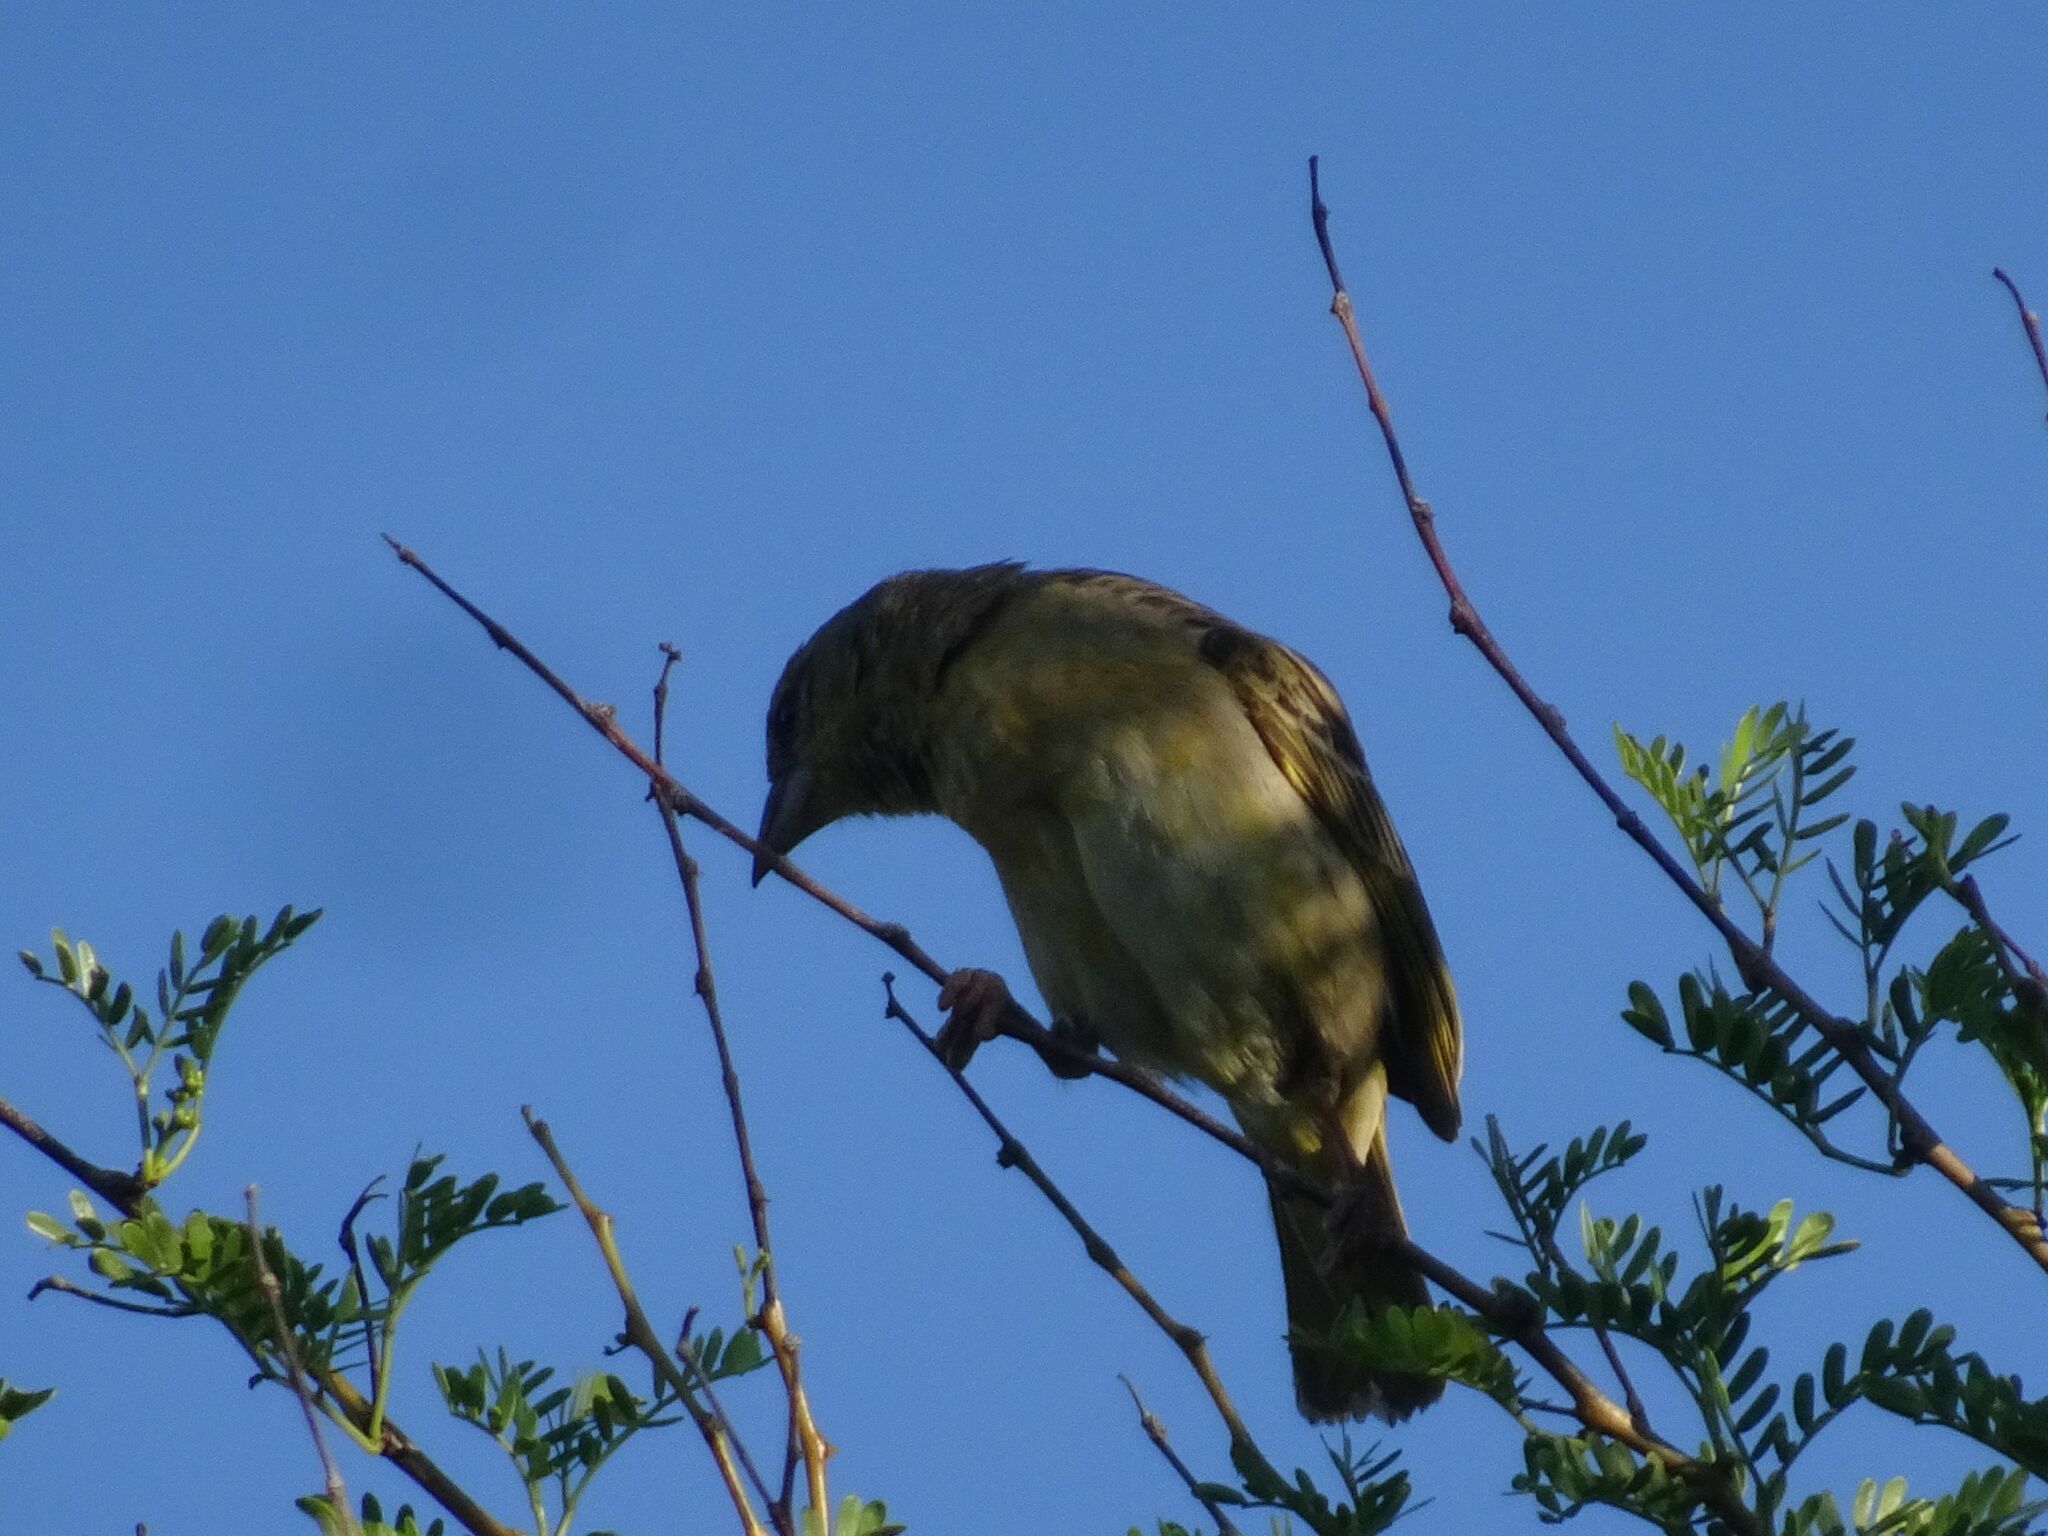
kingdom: Animalia
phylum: Chordata
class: Aves
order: Passeriformes
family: Ploceidae
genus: Ploceus
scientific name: Ploceus velatus
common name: Southern masked weaver
